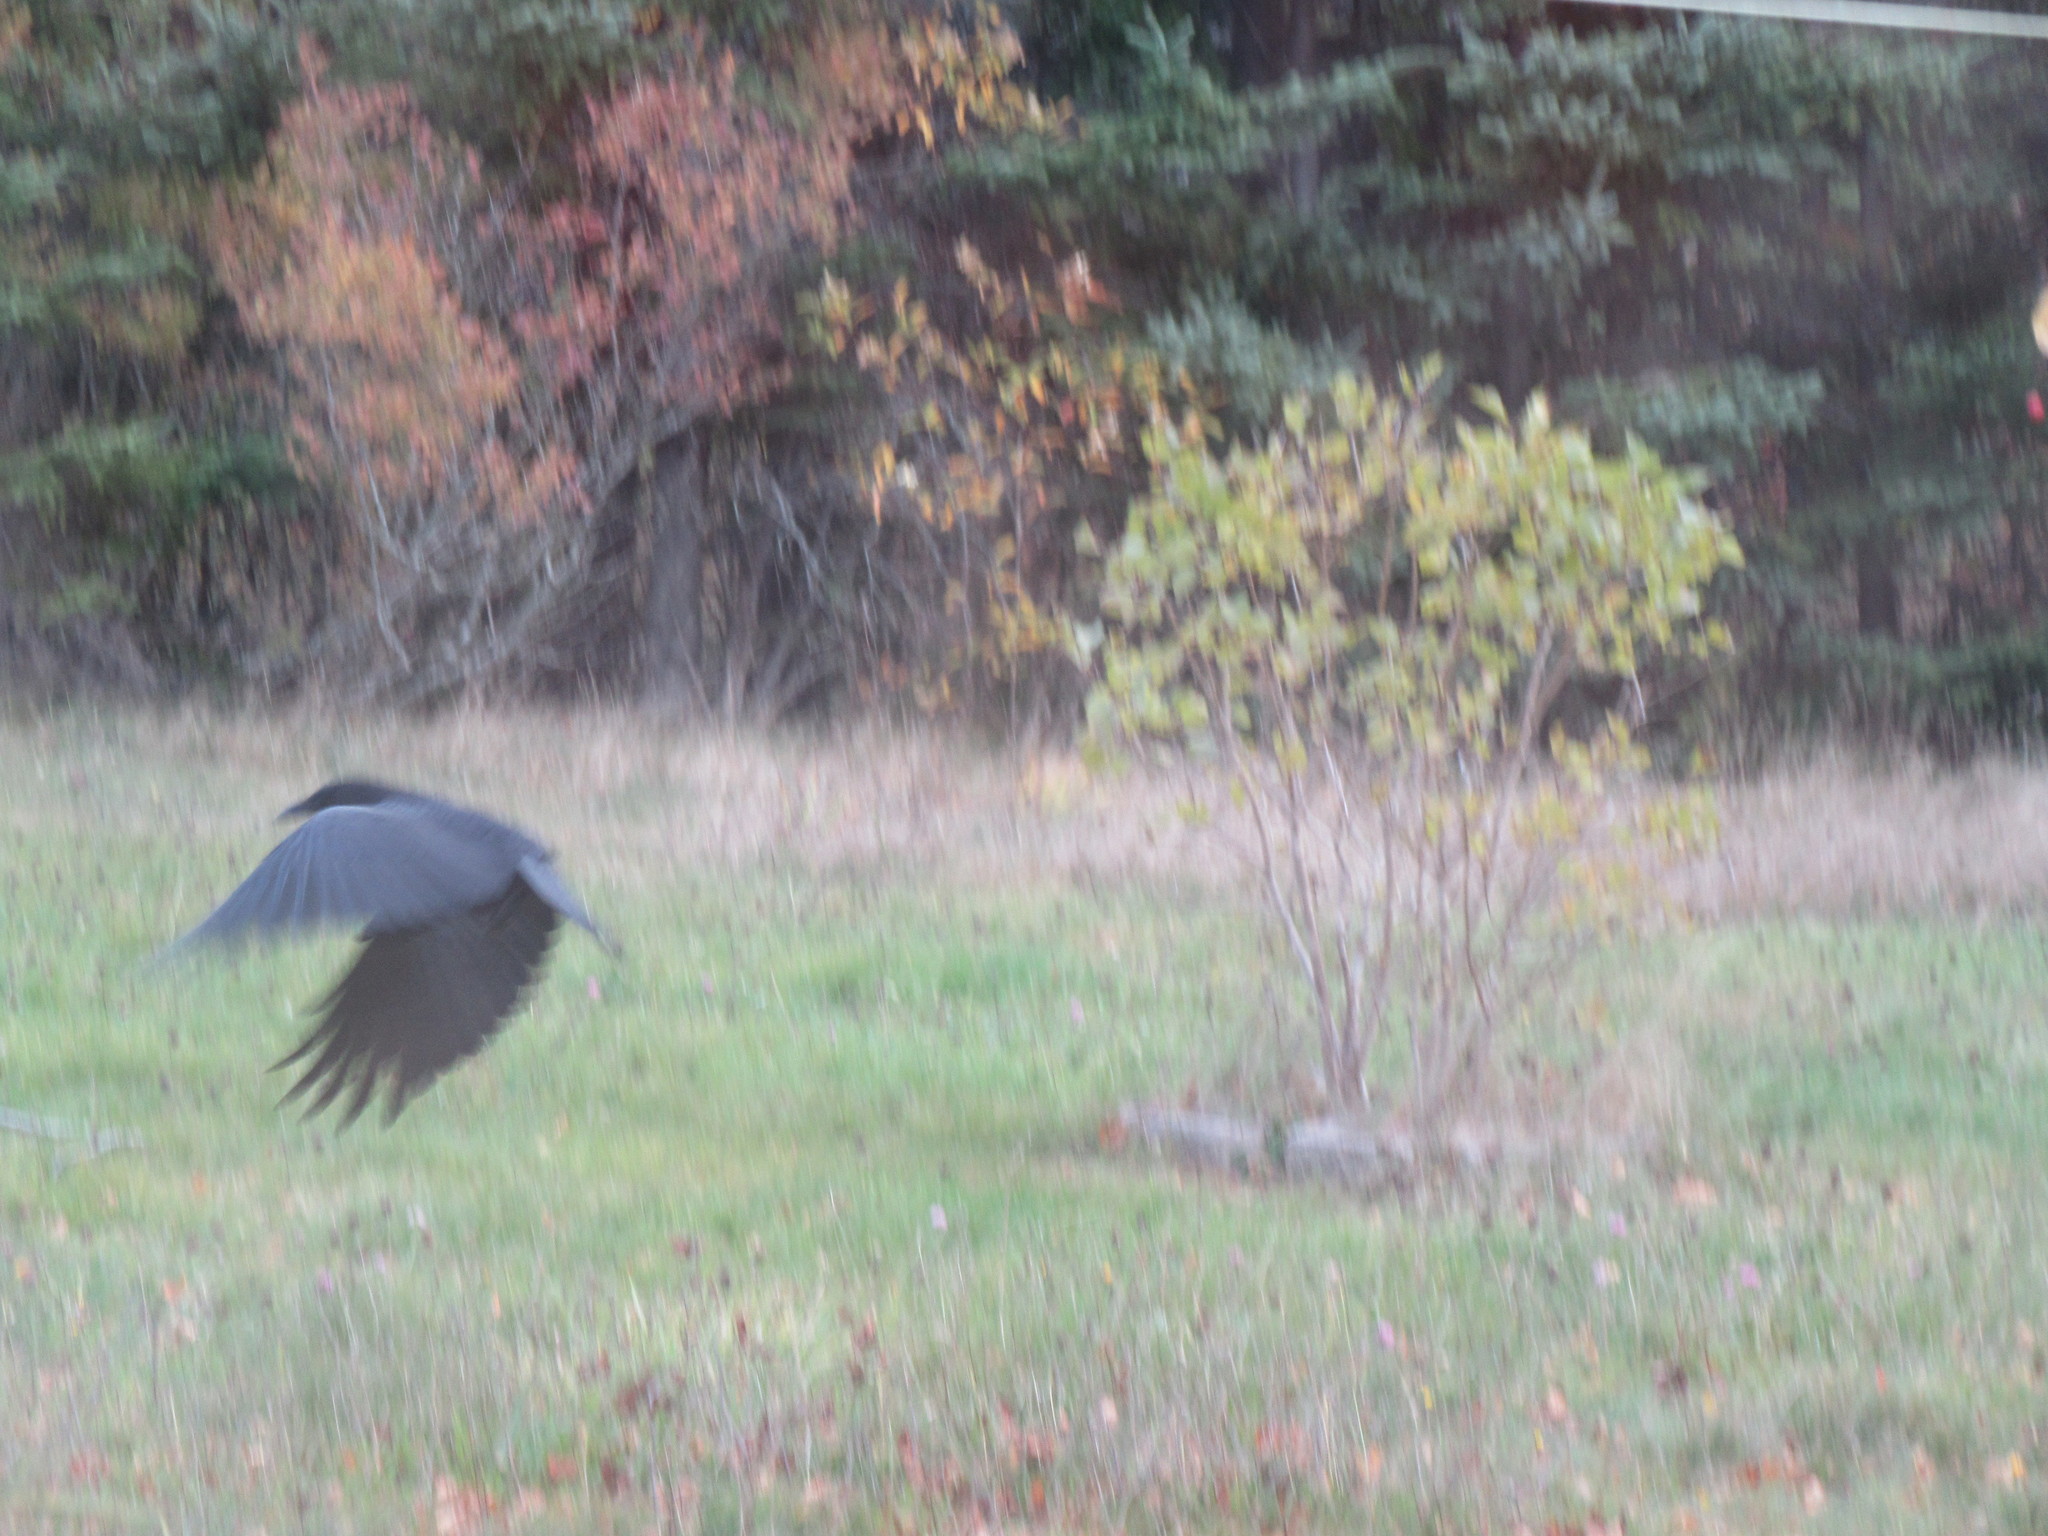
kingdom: Animalia
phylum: Chordata
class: Aves
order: Passeriformes
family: Corvidae
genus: Corvus
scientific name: Corvus brachyrhynchos
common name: American crow
